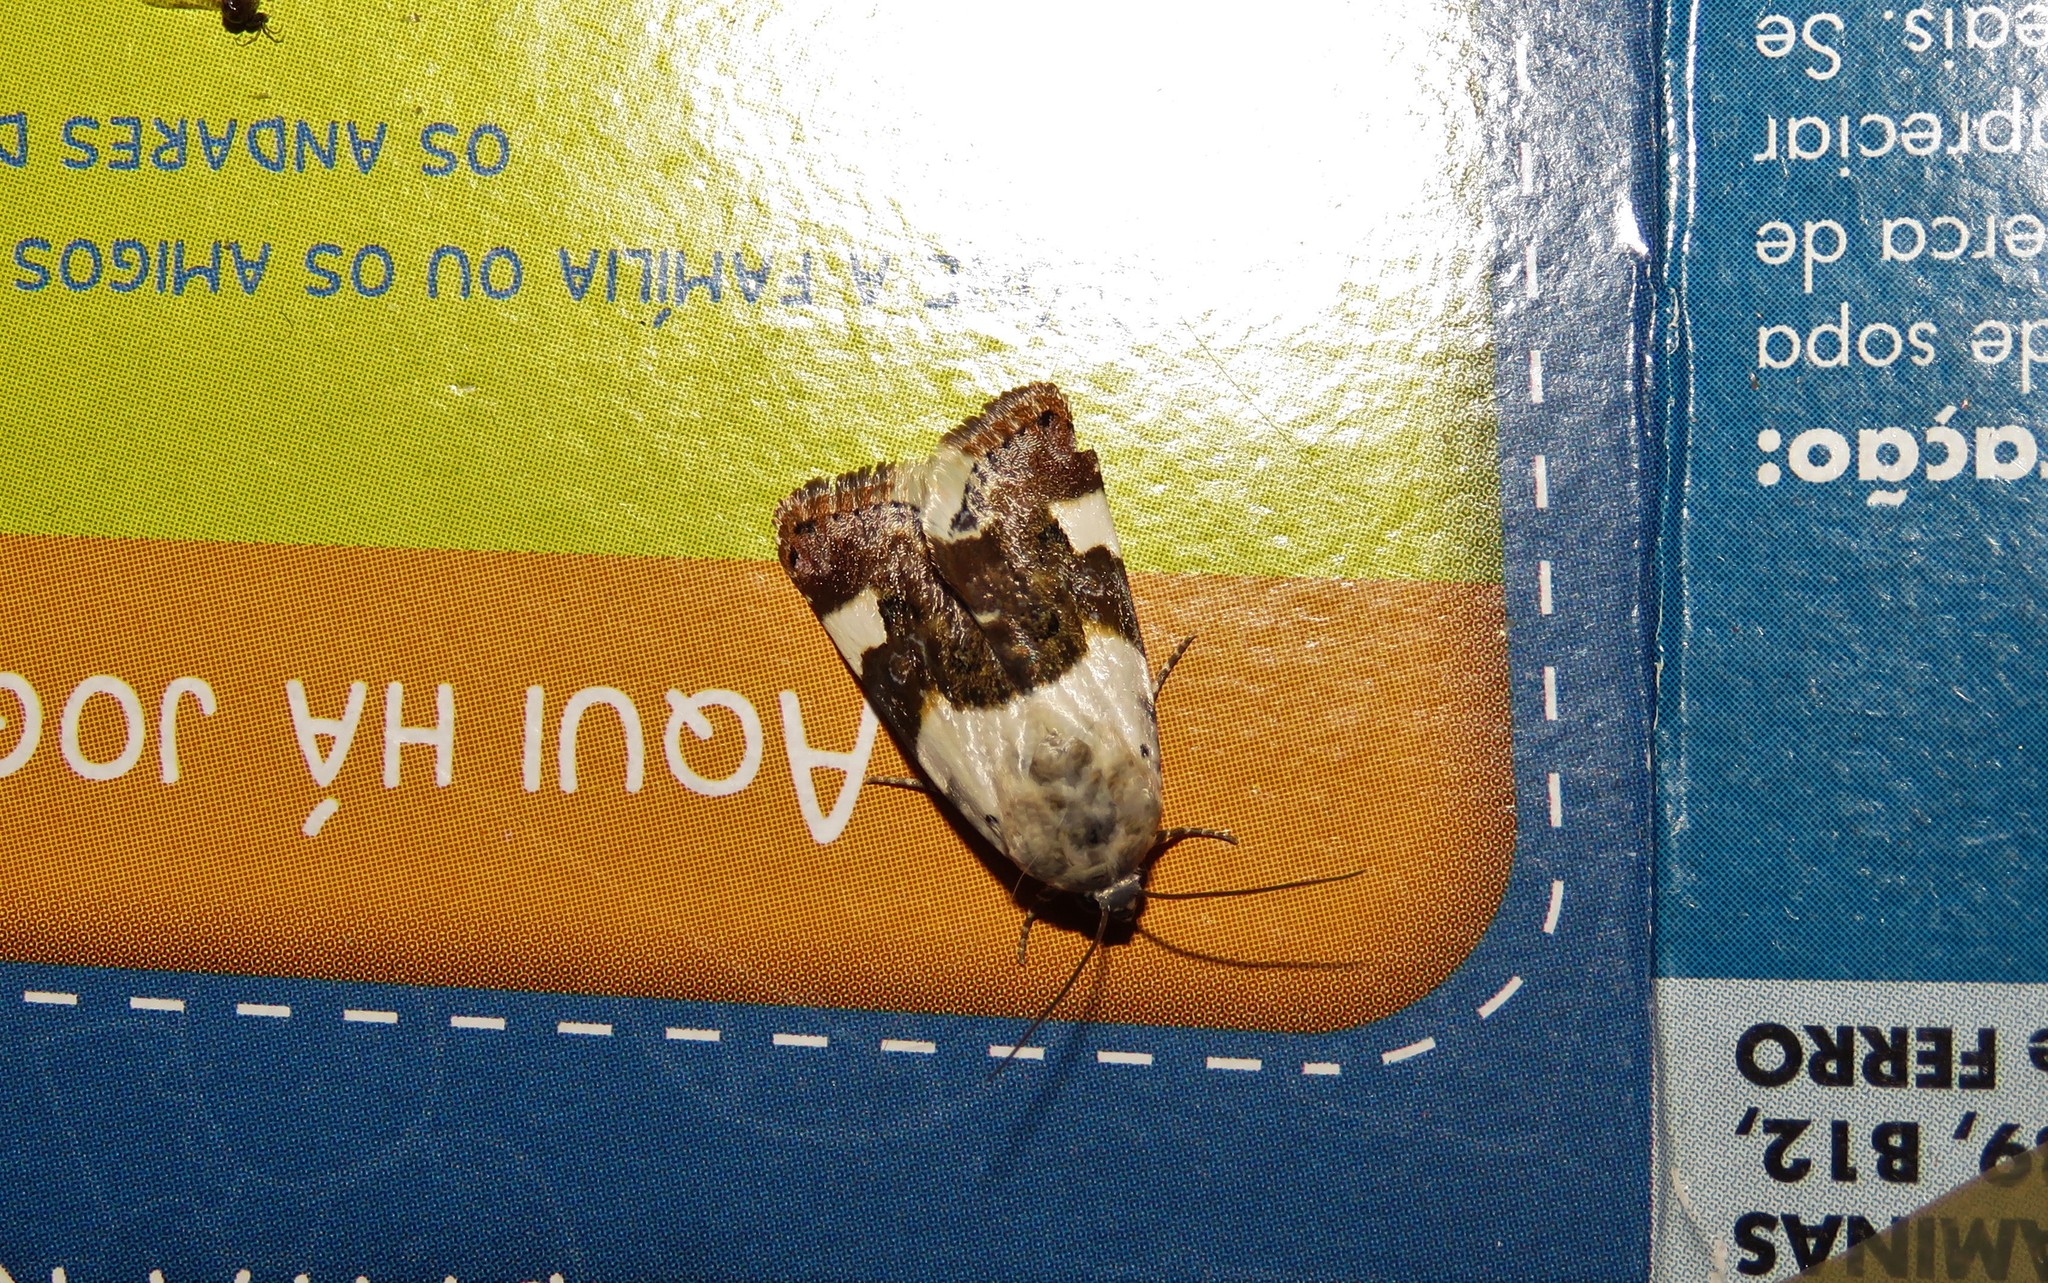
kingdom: Animalia
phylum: Arthropoda
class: Insecta
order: Lepidoptera
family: Noctuidae
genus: Acontia
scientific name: Acontia lucida
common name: Pale shoulder
